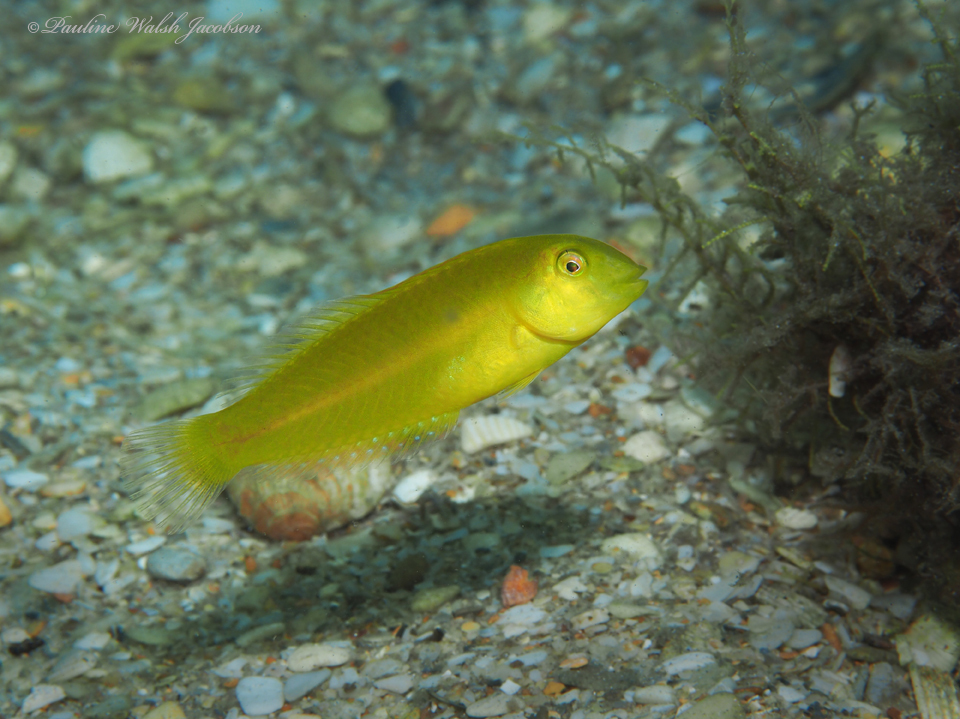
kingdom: Animalia
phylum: Chordata
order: Perciformes
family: Labridae
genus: Xyrichtys
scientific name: Xyrichtys novacula
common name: Pearly razorfish
